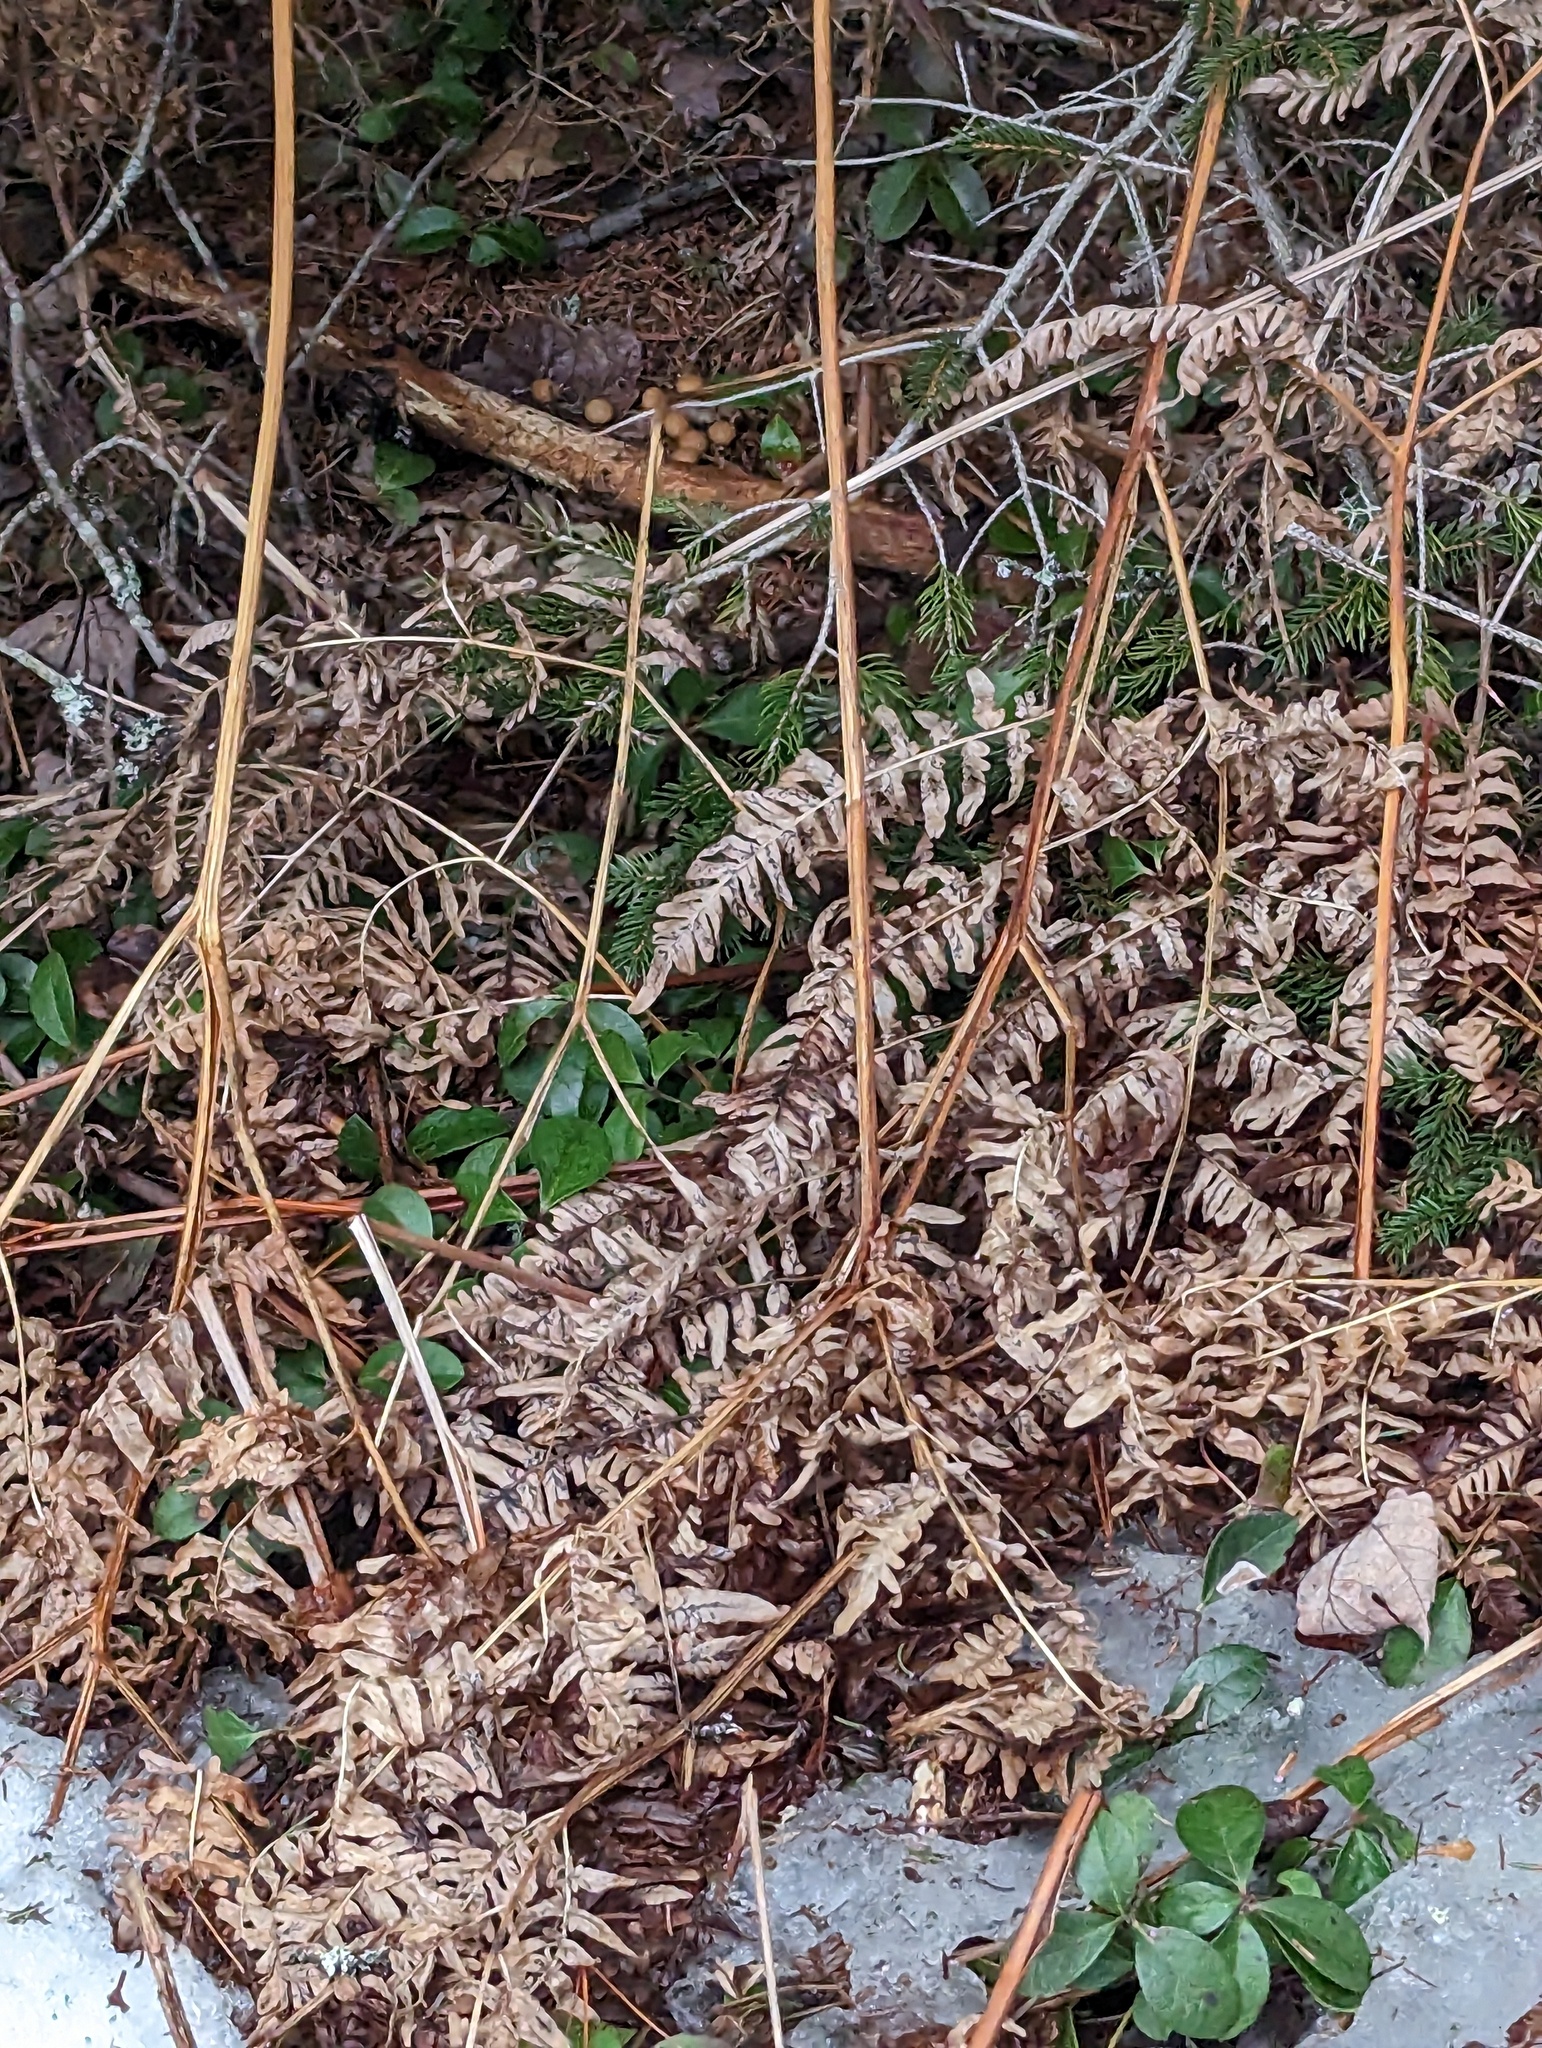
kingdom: Plantae
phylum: Tracheophyta
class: Polypodiopsida
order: Polypodiales
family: Dennstaedtiaceae
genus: Pteridium
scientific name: Pteridium aquilinum
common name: Bracken
